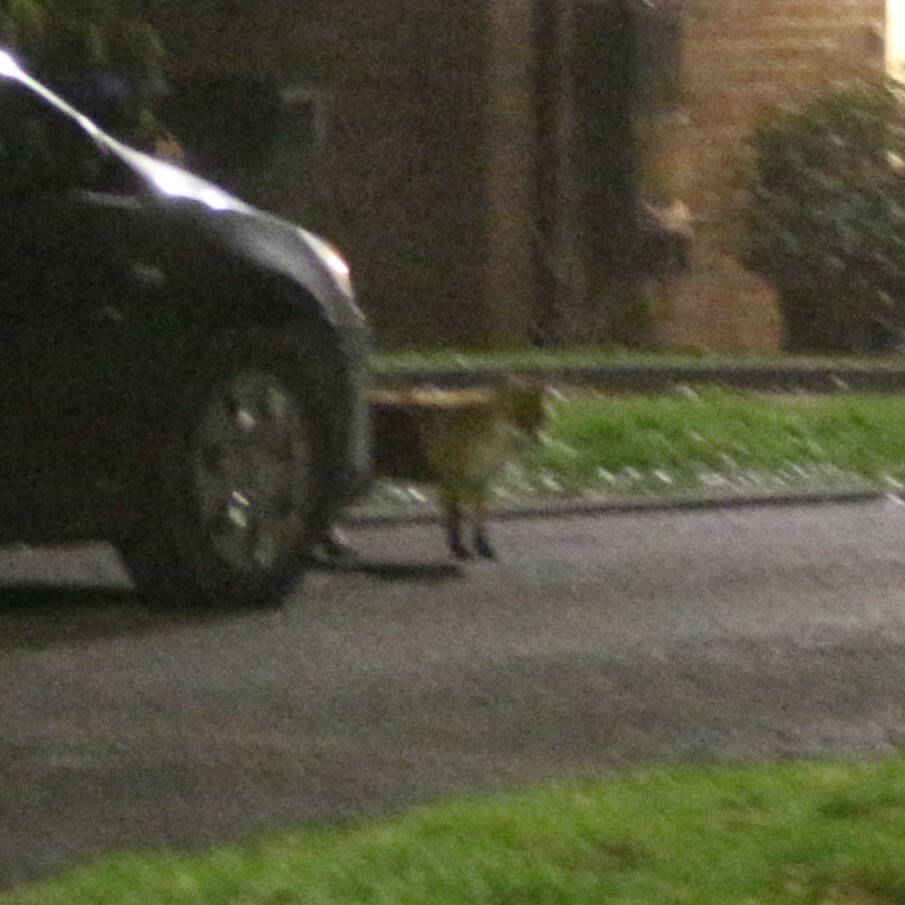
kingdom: Animalia
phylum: Chordata
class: Mammalia
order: Carnivora
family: Canidae
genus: Vulpes
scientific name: Vulpes vulpes
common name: Red fox
